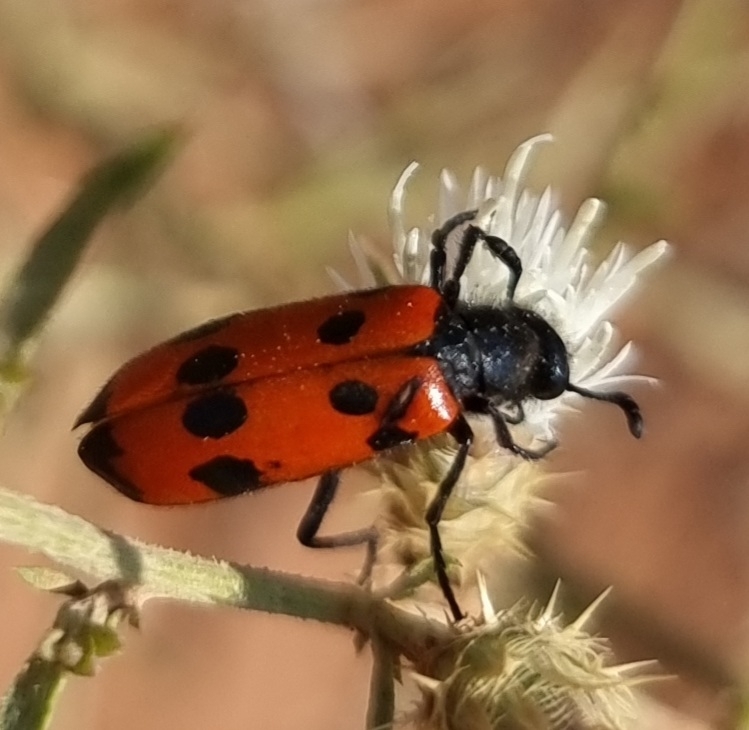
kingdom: Animalia
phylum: Arthropoda
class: Insecta
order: Coleoptera
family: Meloidae
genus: Mylabris
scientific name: Mylabris quadripunctata
